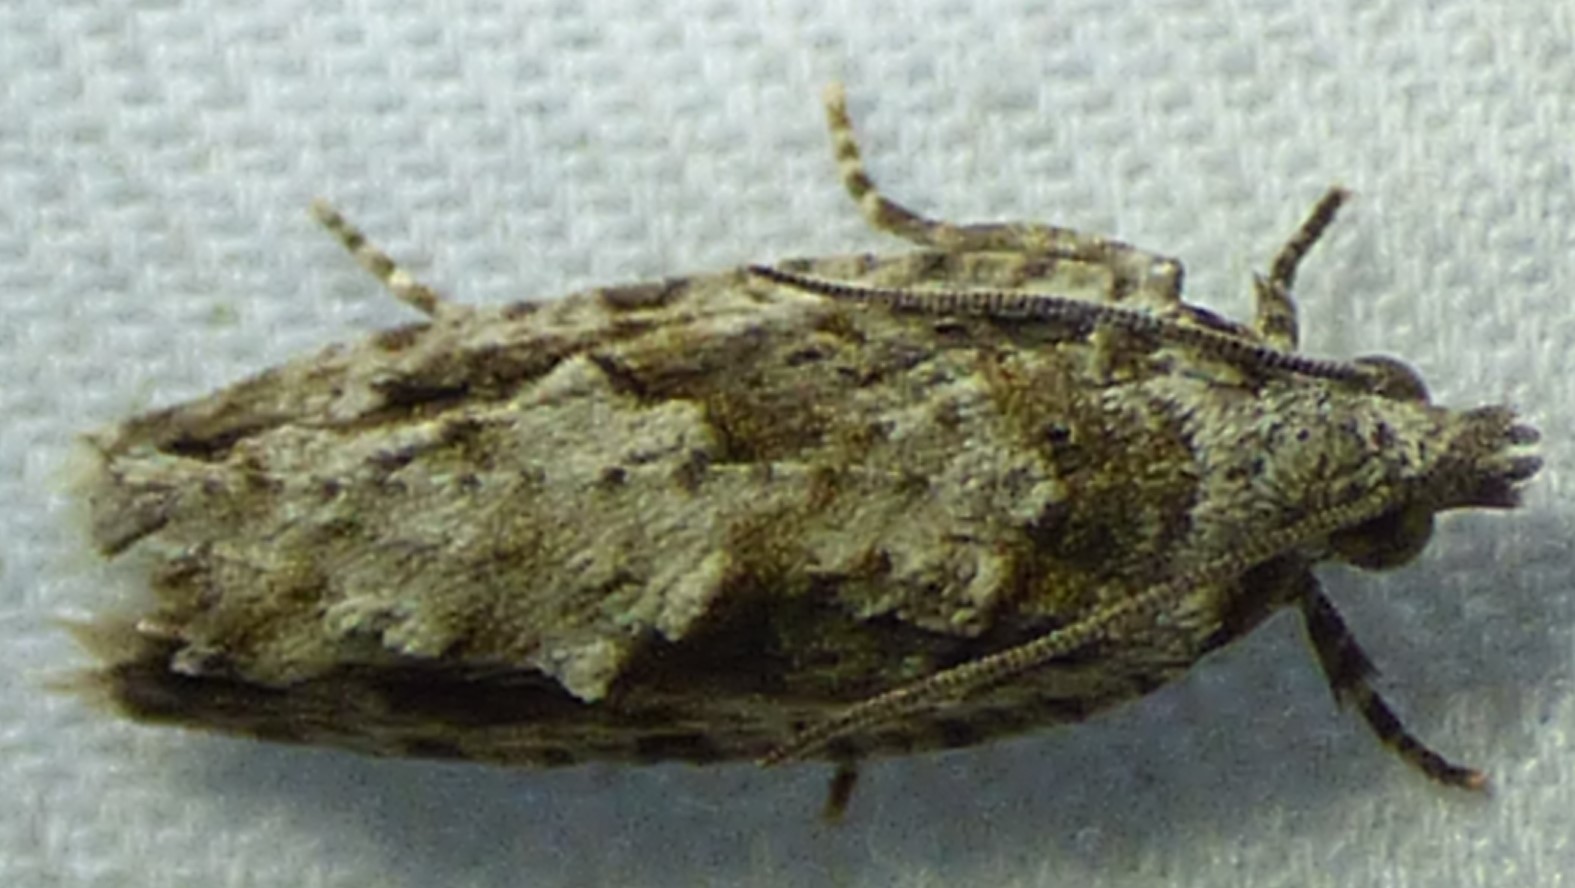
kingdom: Animalia
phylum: Arthropoda
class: Insecta
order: Lepidoptera
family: Tortricidae
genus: Gretchena
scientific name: Gretchena bolliana
